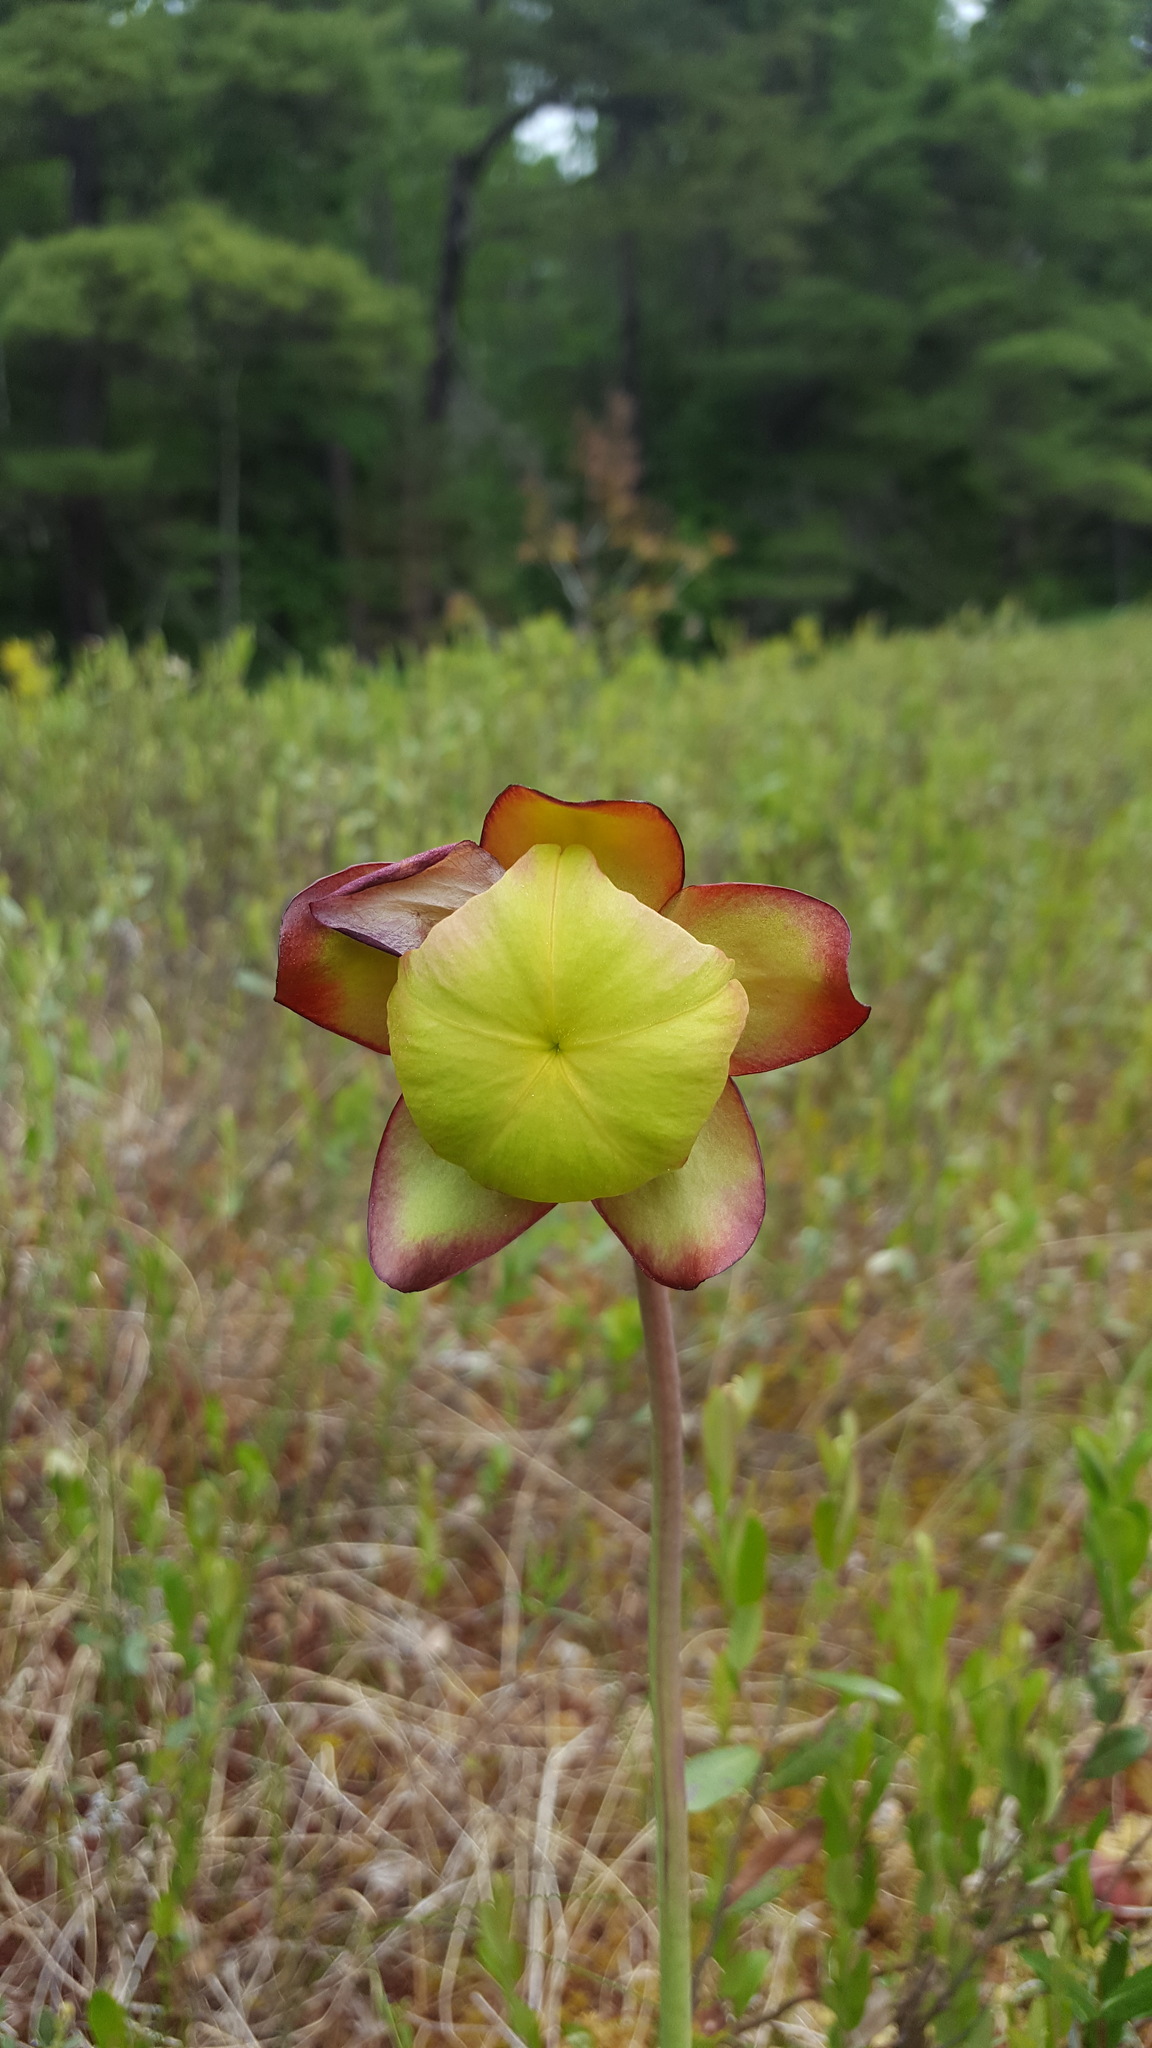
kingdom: Plantae
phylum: Tracheophyta
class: Magnoliopsida
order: Ericales
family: Sarraceniaceae
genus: Sarracenia
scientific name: Sarracenia purpurea
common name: Pitcherplant
